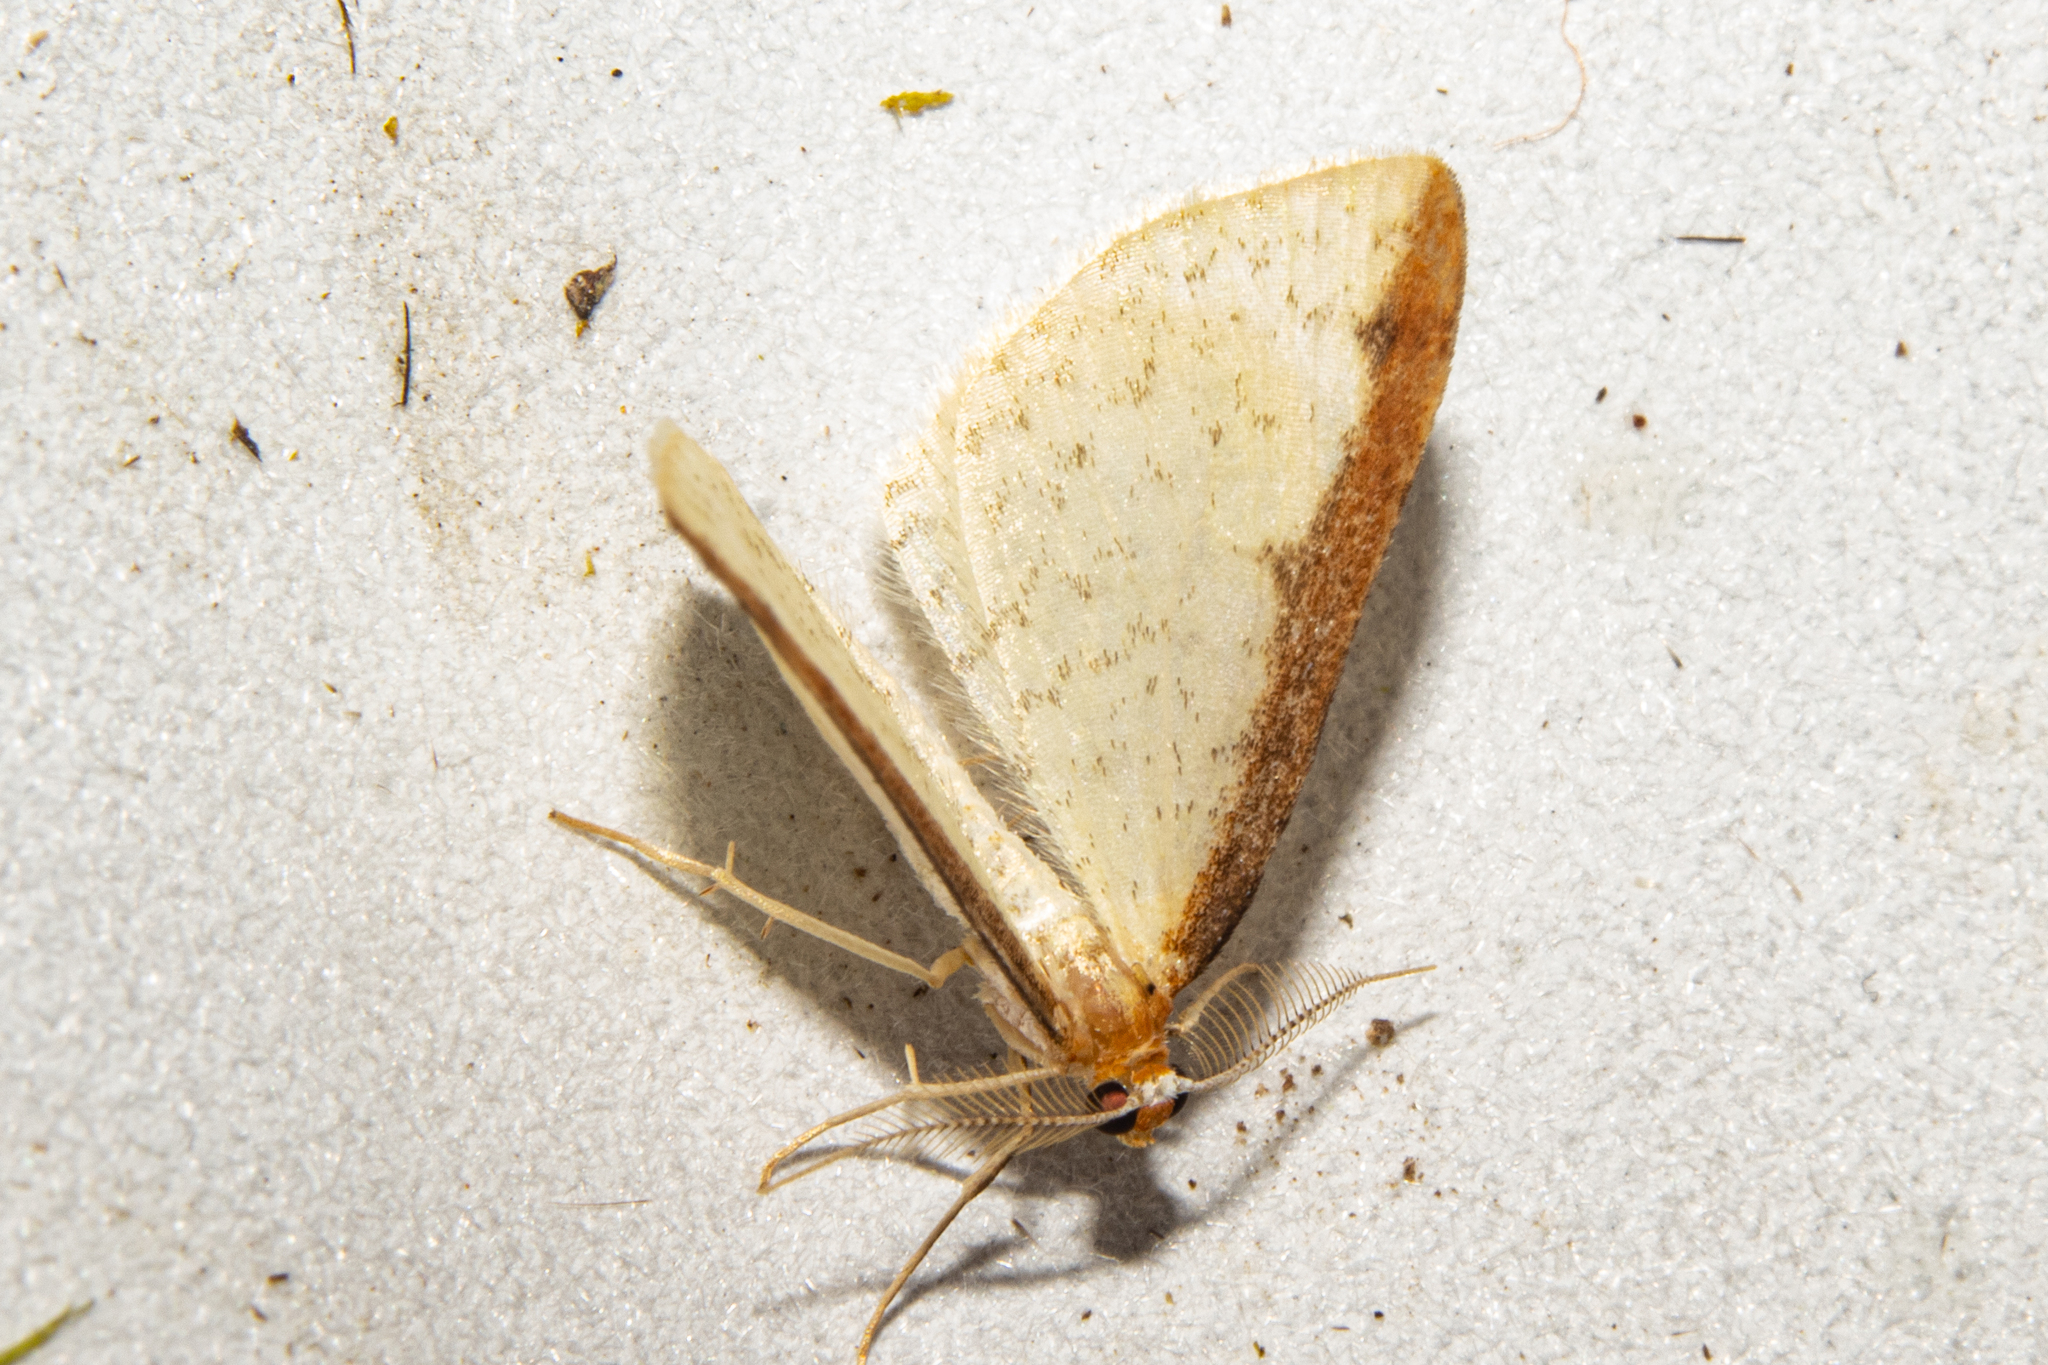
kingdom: Animalia
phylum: Arthropoda
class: Insecta
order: Lepidoptera
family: Geometridae
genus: Epiphryne
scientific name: Epiphryne undosata
